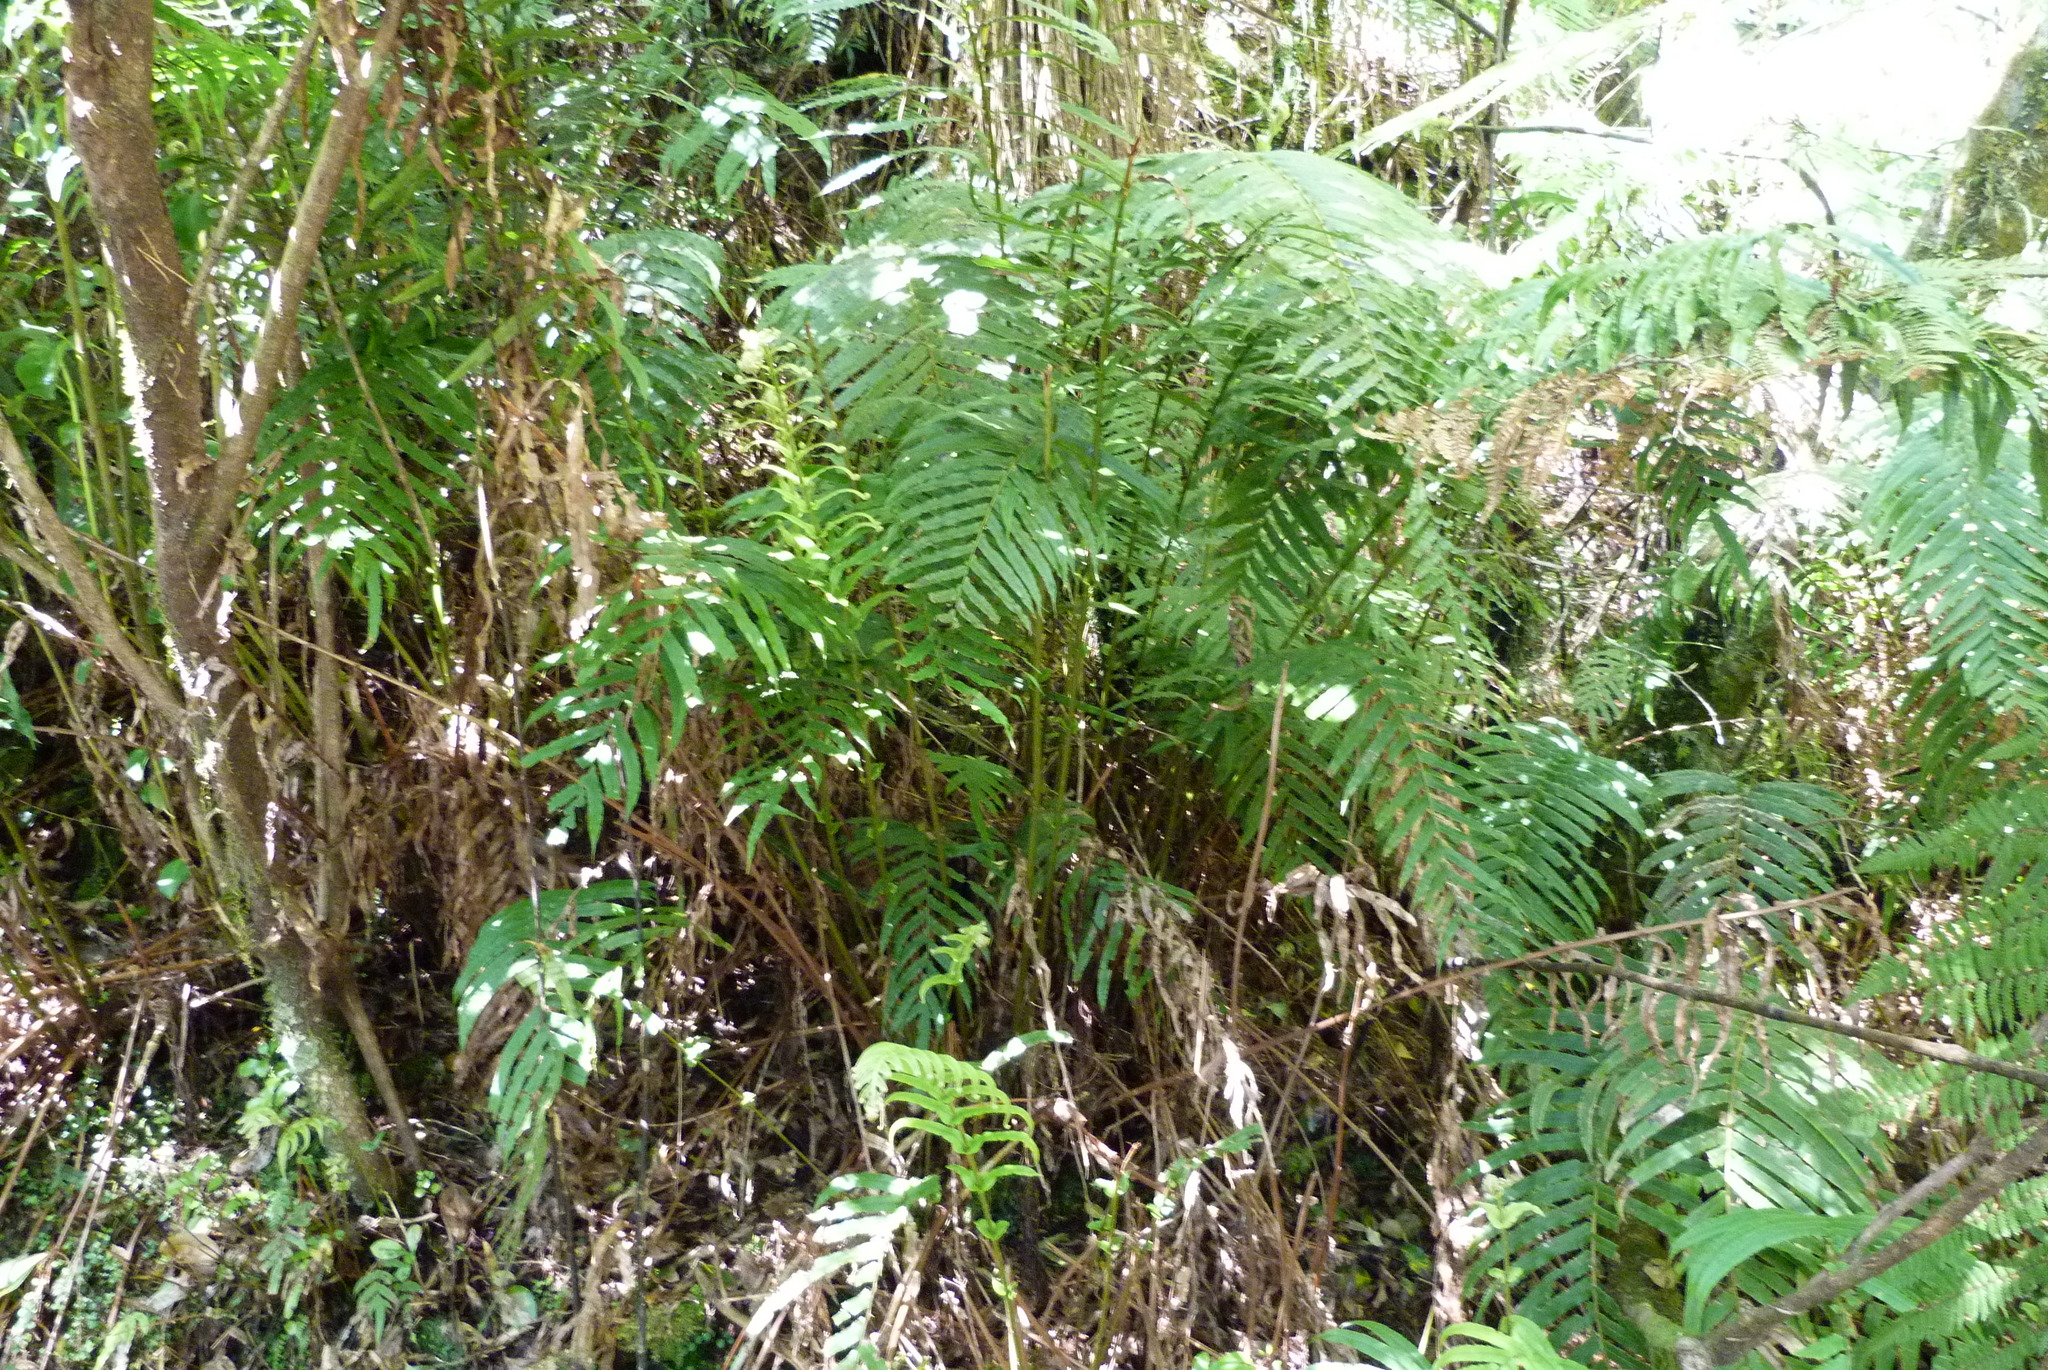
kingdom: Plantae
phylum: Tracheophyta
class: Polypodiopsida
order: Polypodiales
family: Blechnaceae
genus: Parablechnum
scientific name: Parablechnum novae-zelandiae
